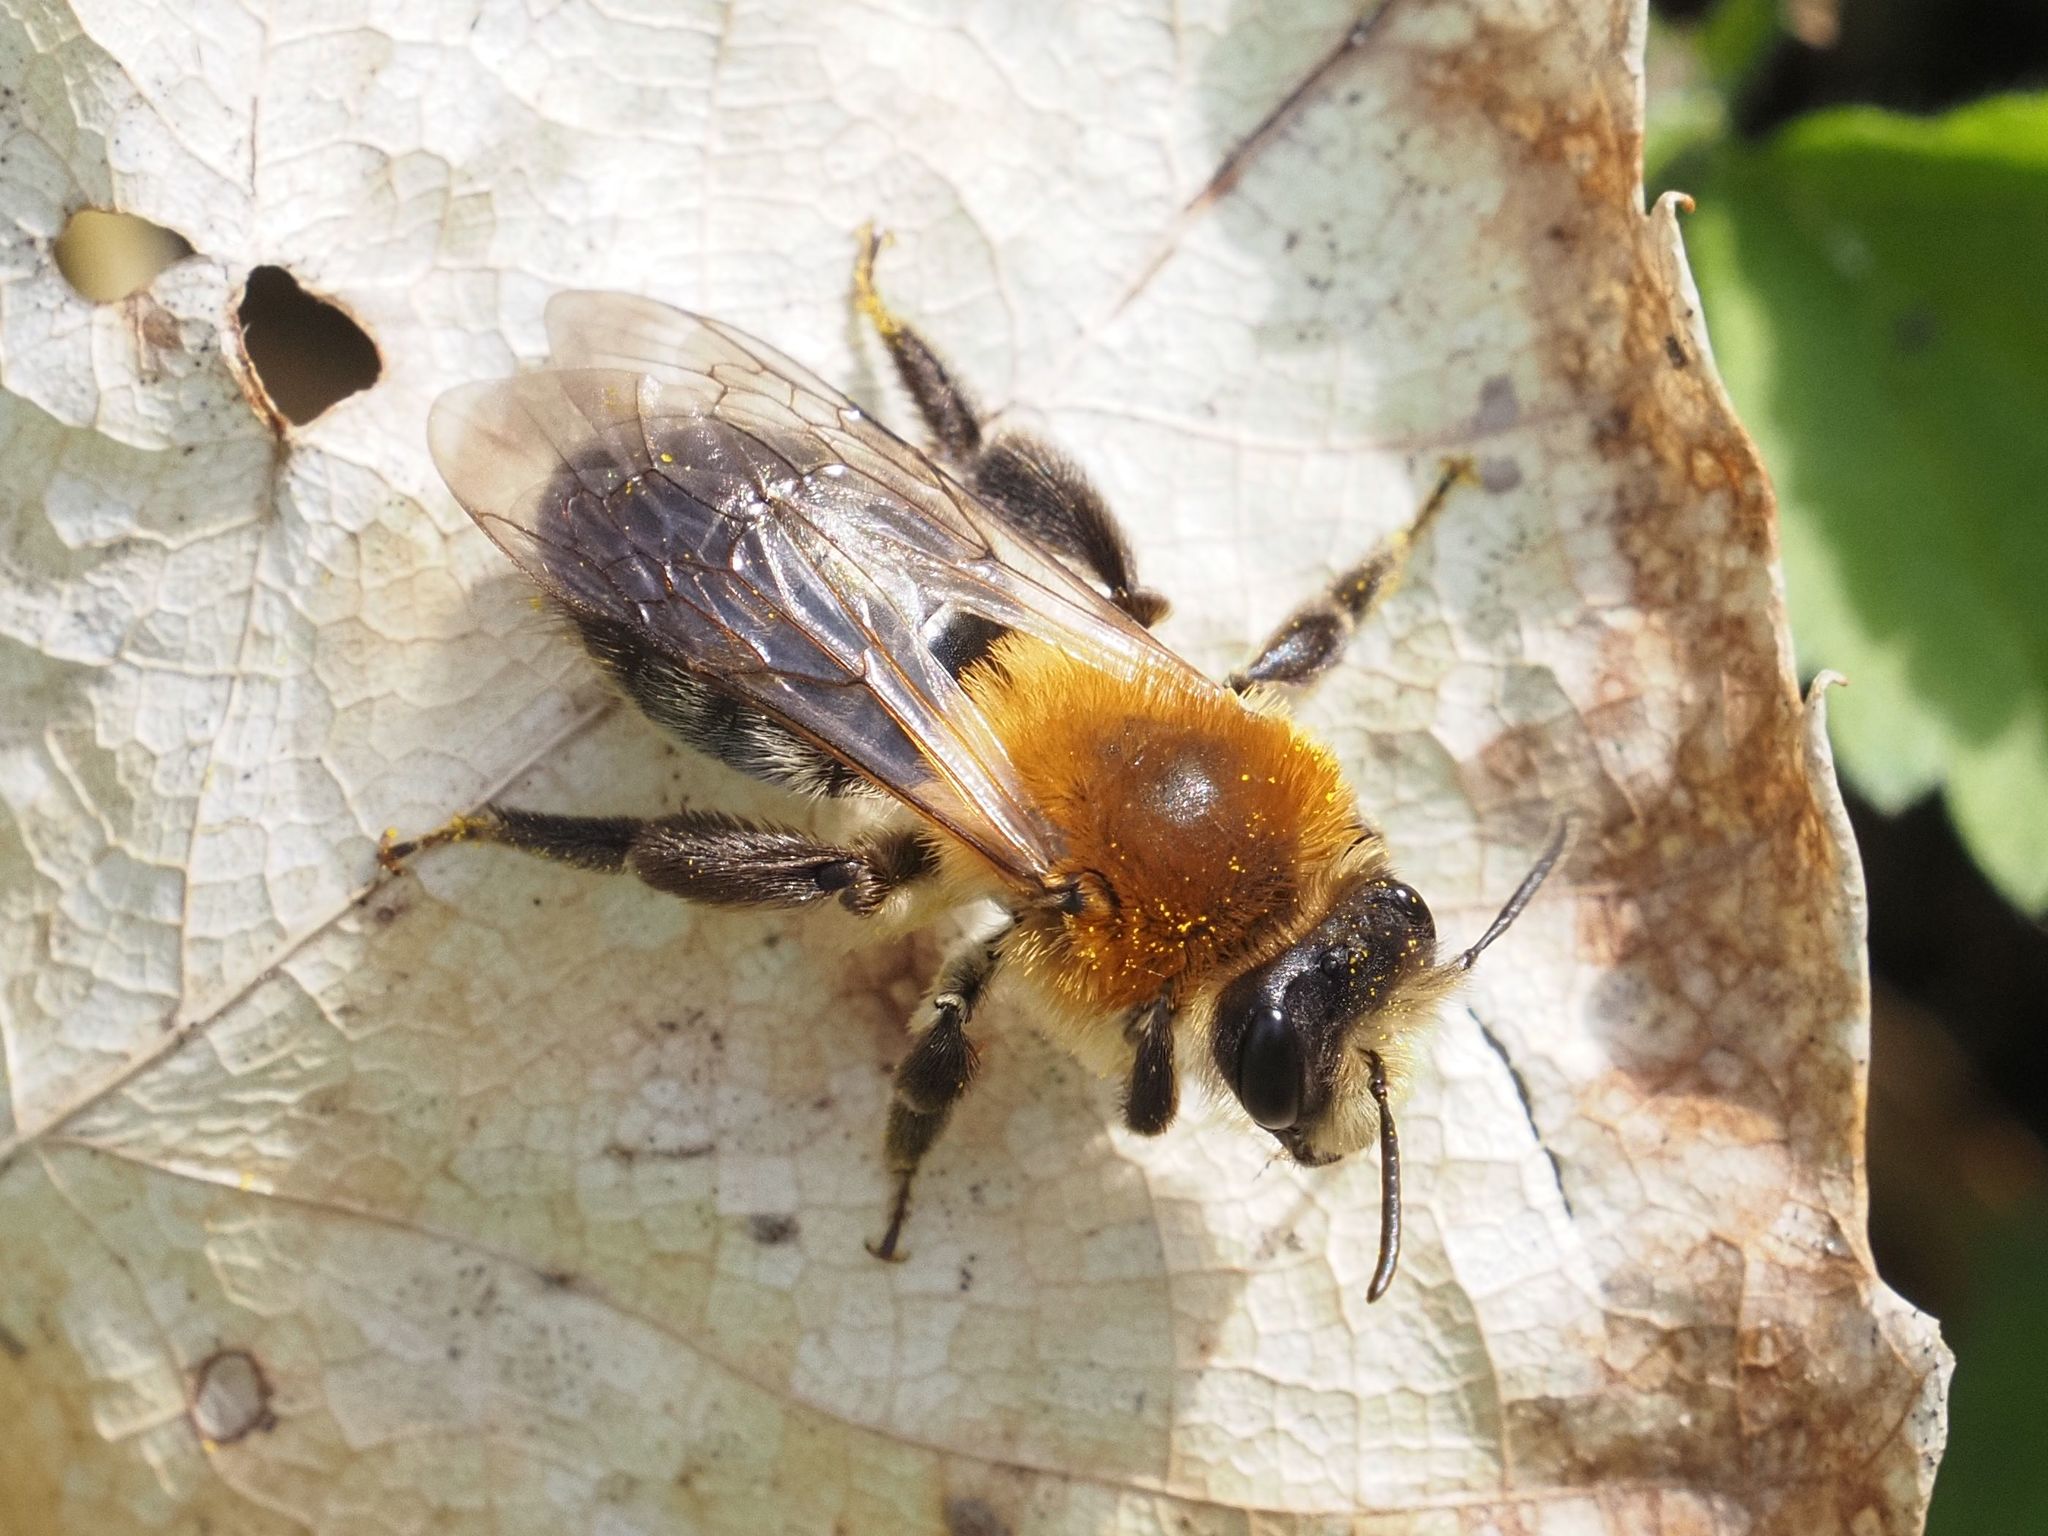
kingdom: Animalia
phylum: Arthropoda
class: Insecta
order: Hymenoptera
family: Andrenidae
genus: Andrena
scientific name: Andrena nitida
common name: Grey-patched mining bee
